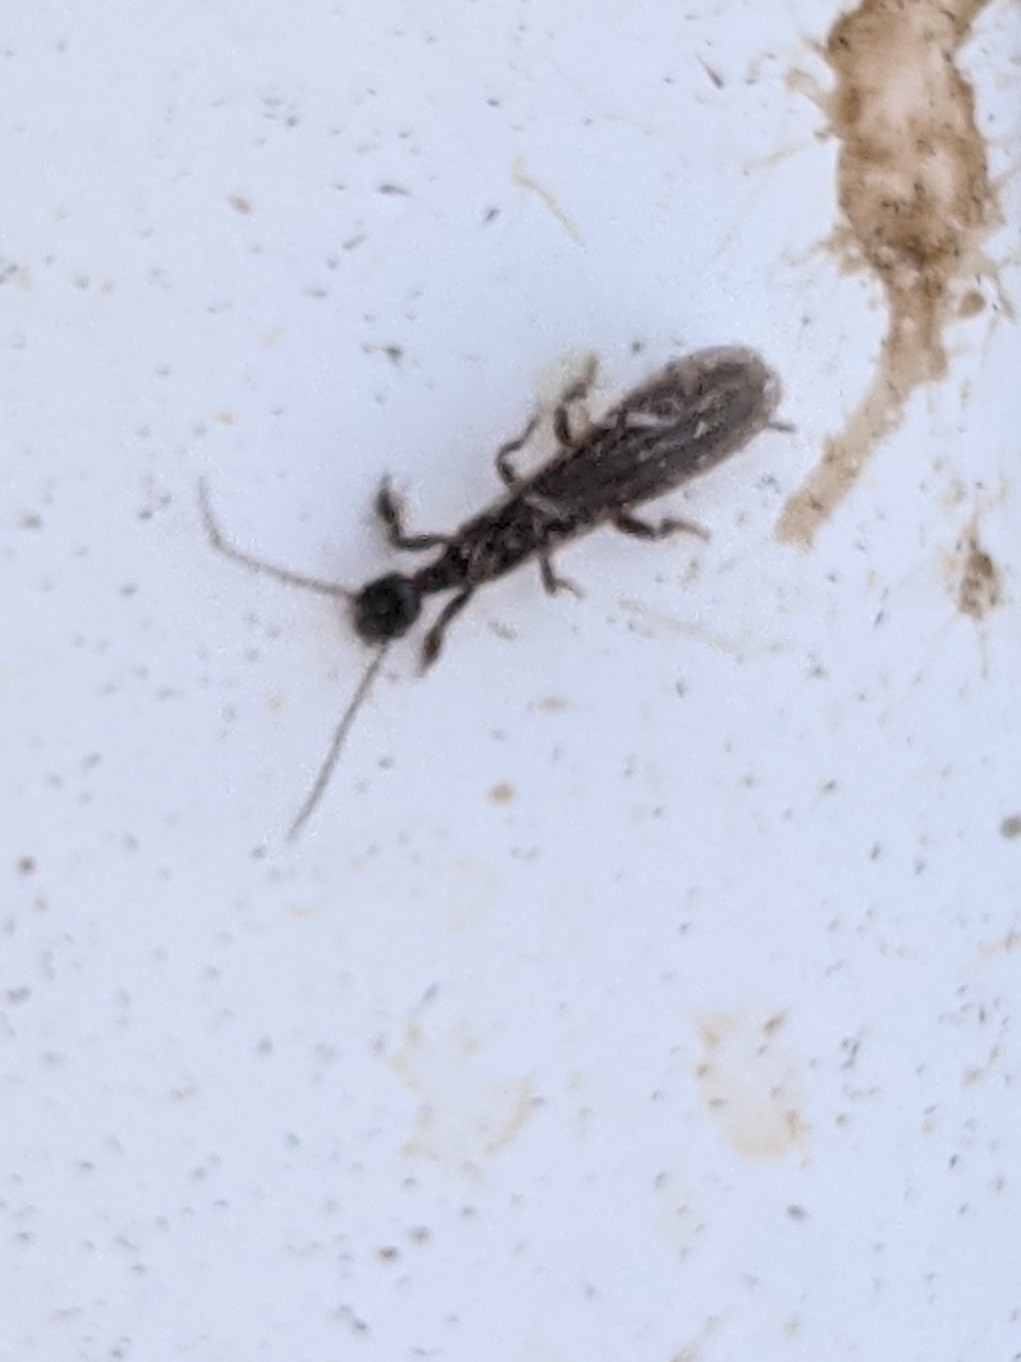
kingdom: Animalia
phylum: Arthropoda
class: Insecta
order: Embioptera
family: Oligotomidae
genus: Oligotoma
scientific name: Oligotoma nigra
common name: Black webspinner
